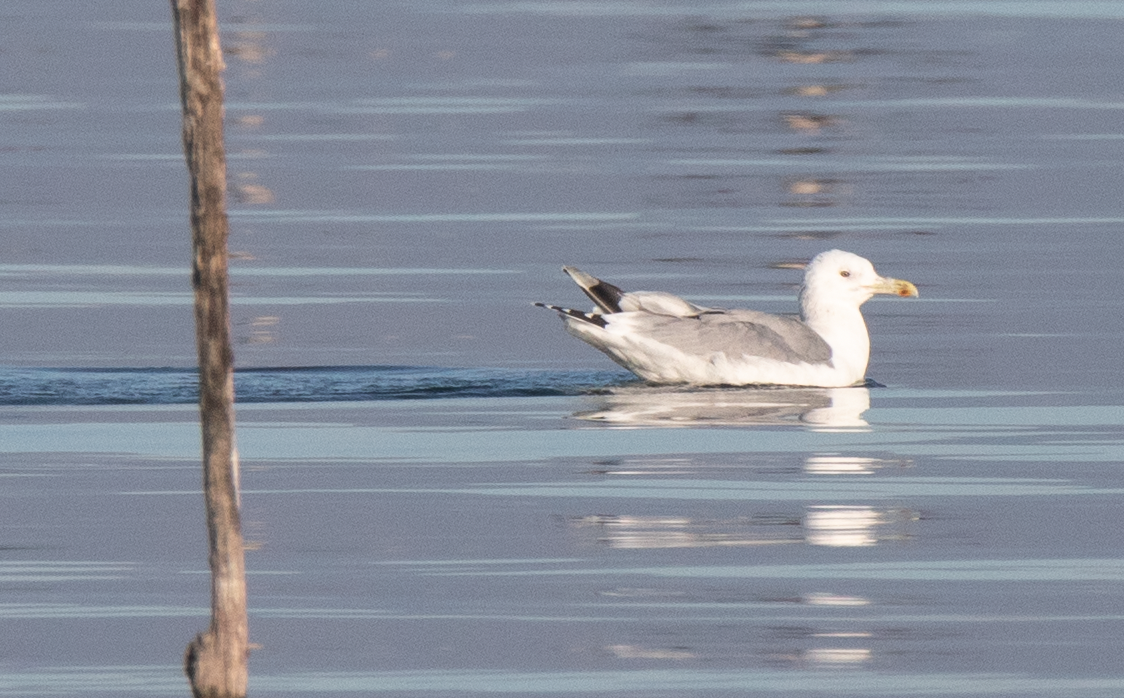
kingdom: Animalia
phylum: Chordata
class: Aves
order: Charadriiformes
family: Laridae
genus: Larus
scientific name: Larus michahellis
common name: Yellow-legged gull
